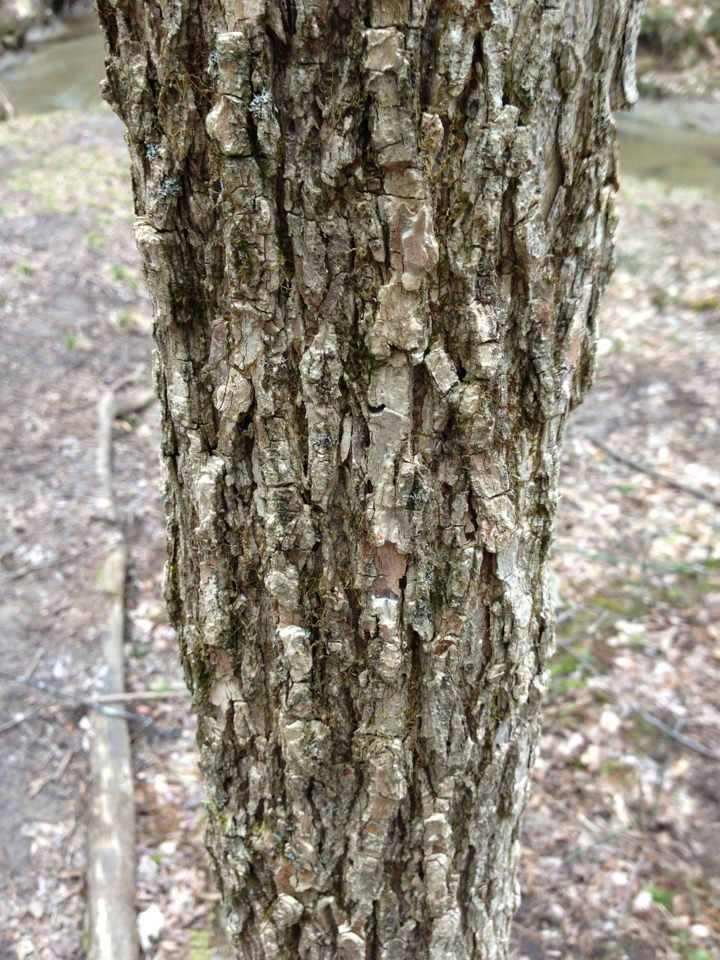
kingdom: Plantae
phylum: Tracheophyta
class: Magnoliopsida
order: Rosales
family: Ulmaceae
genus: Ulmus
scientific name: Ulmus americana
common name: American elm
